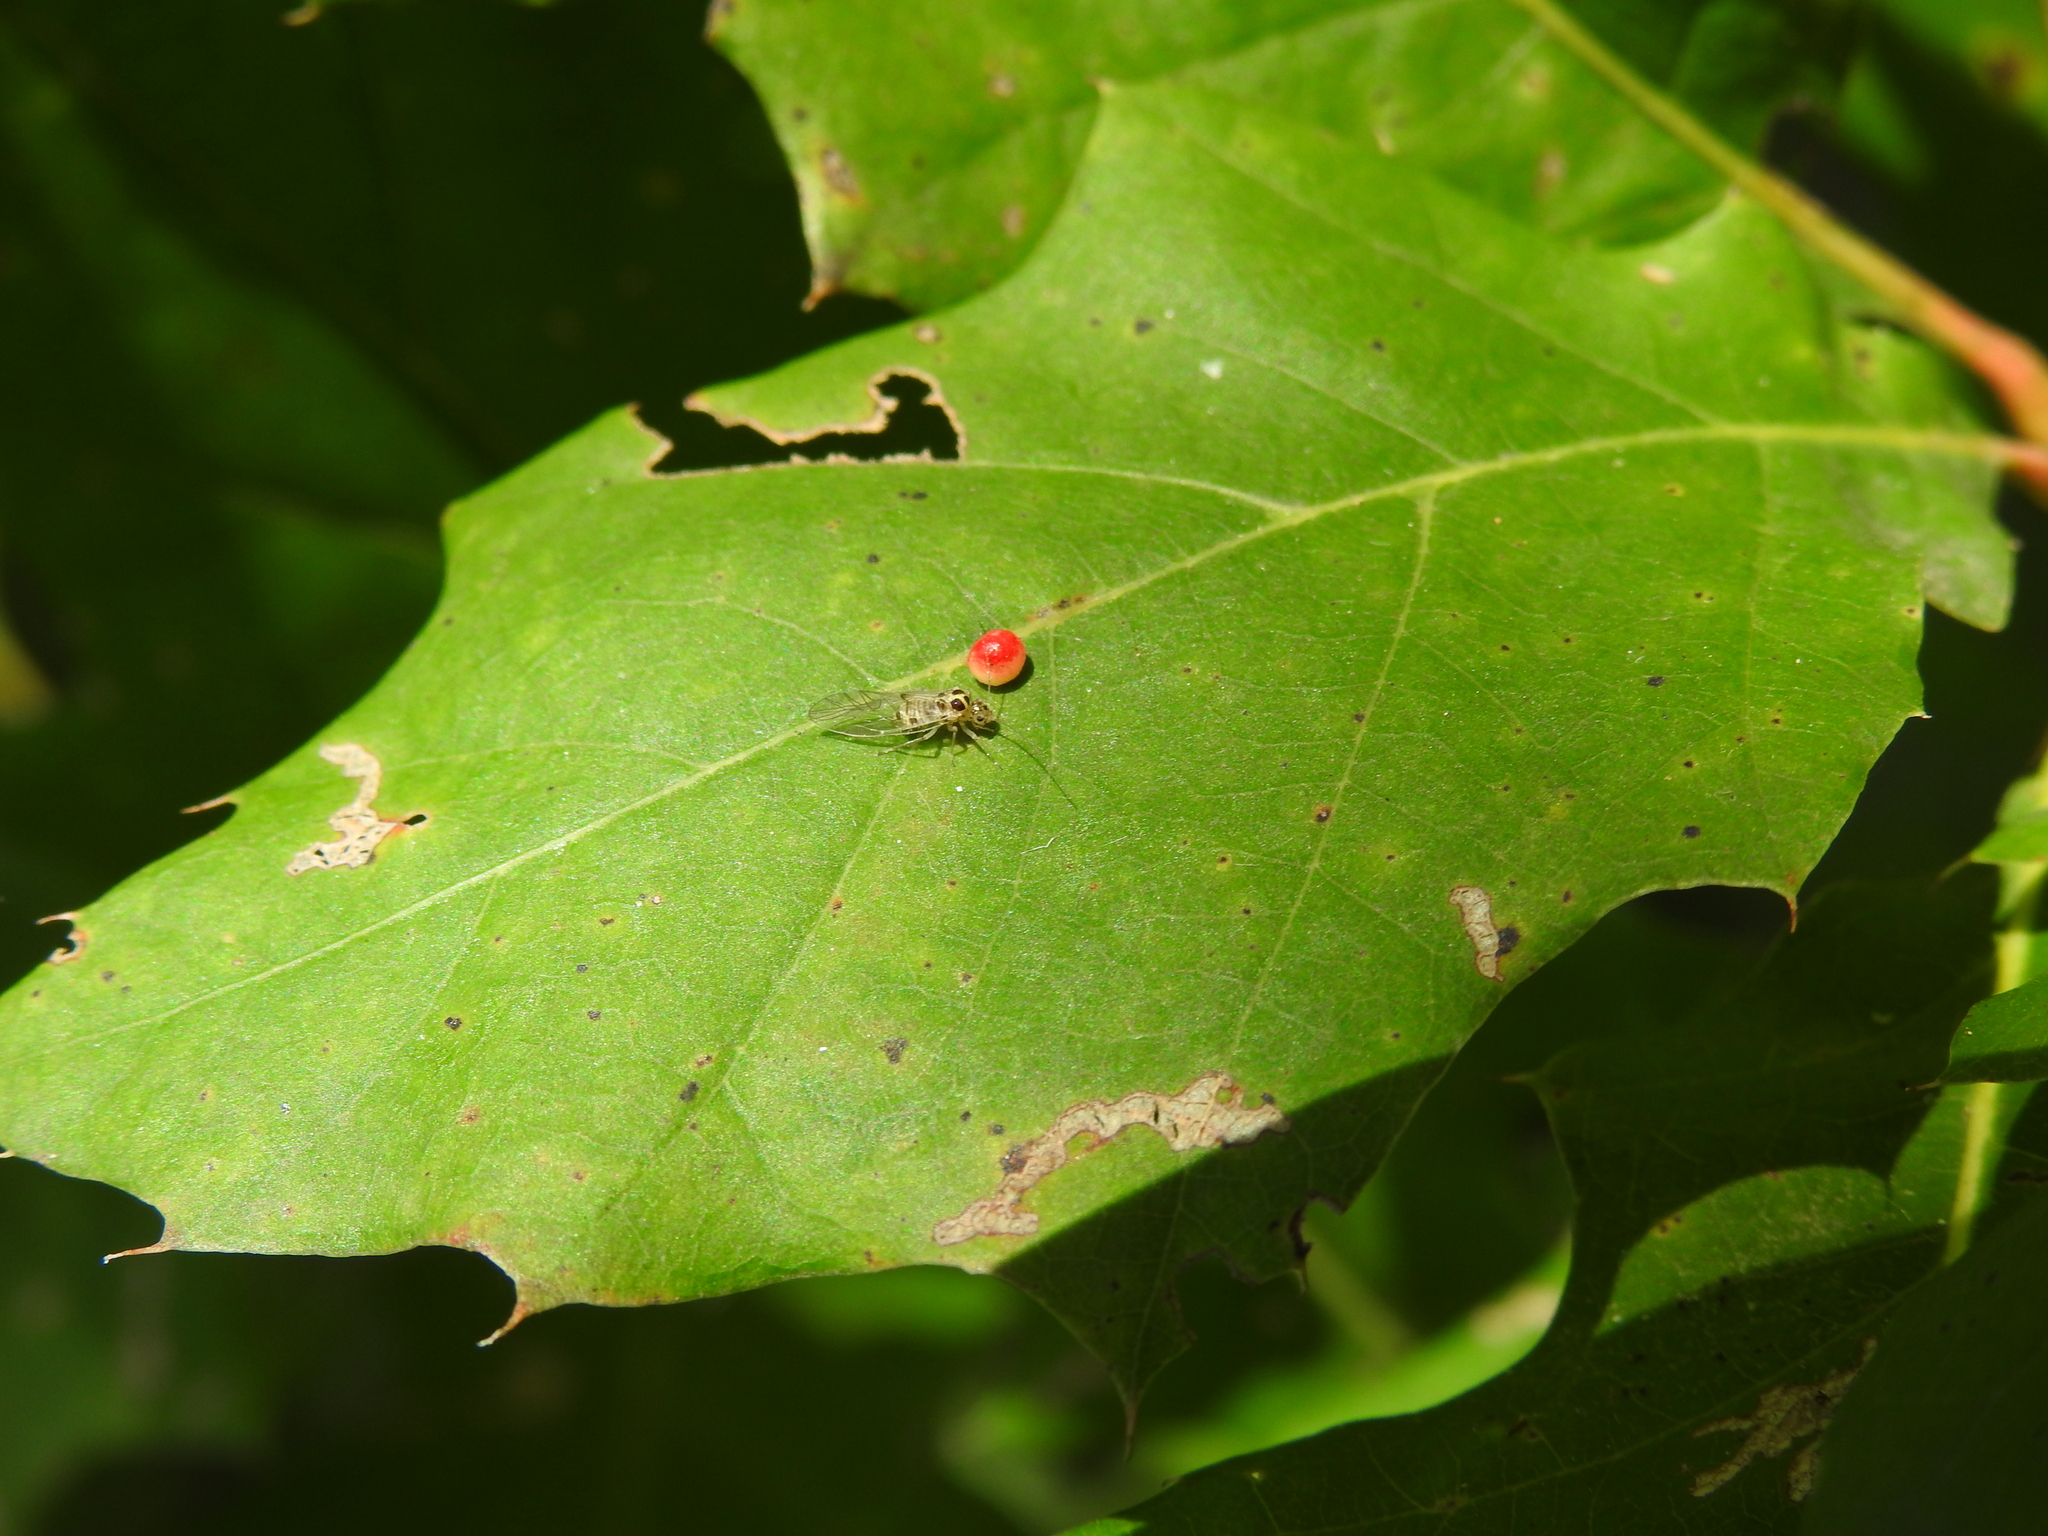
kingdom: Animalia
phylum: Arthropoda
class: Insecta
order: Psocodea
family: Dasydemellidae
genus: Teliapsocus
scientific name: Teliapsocus conterminus
